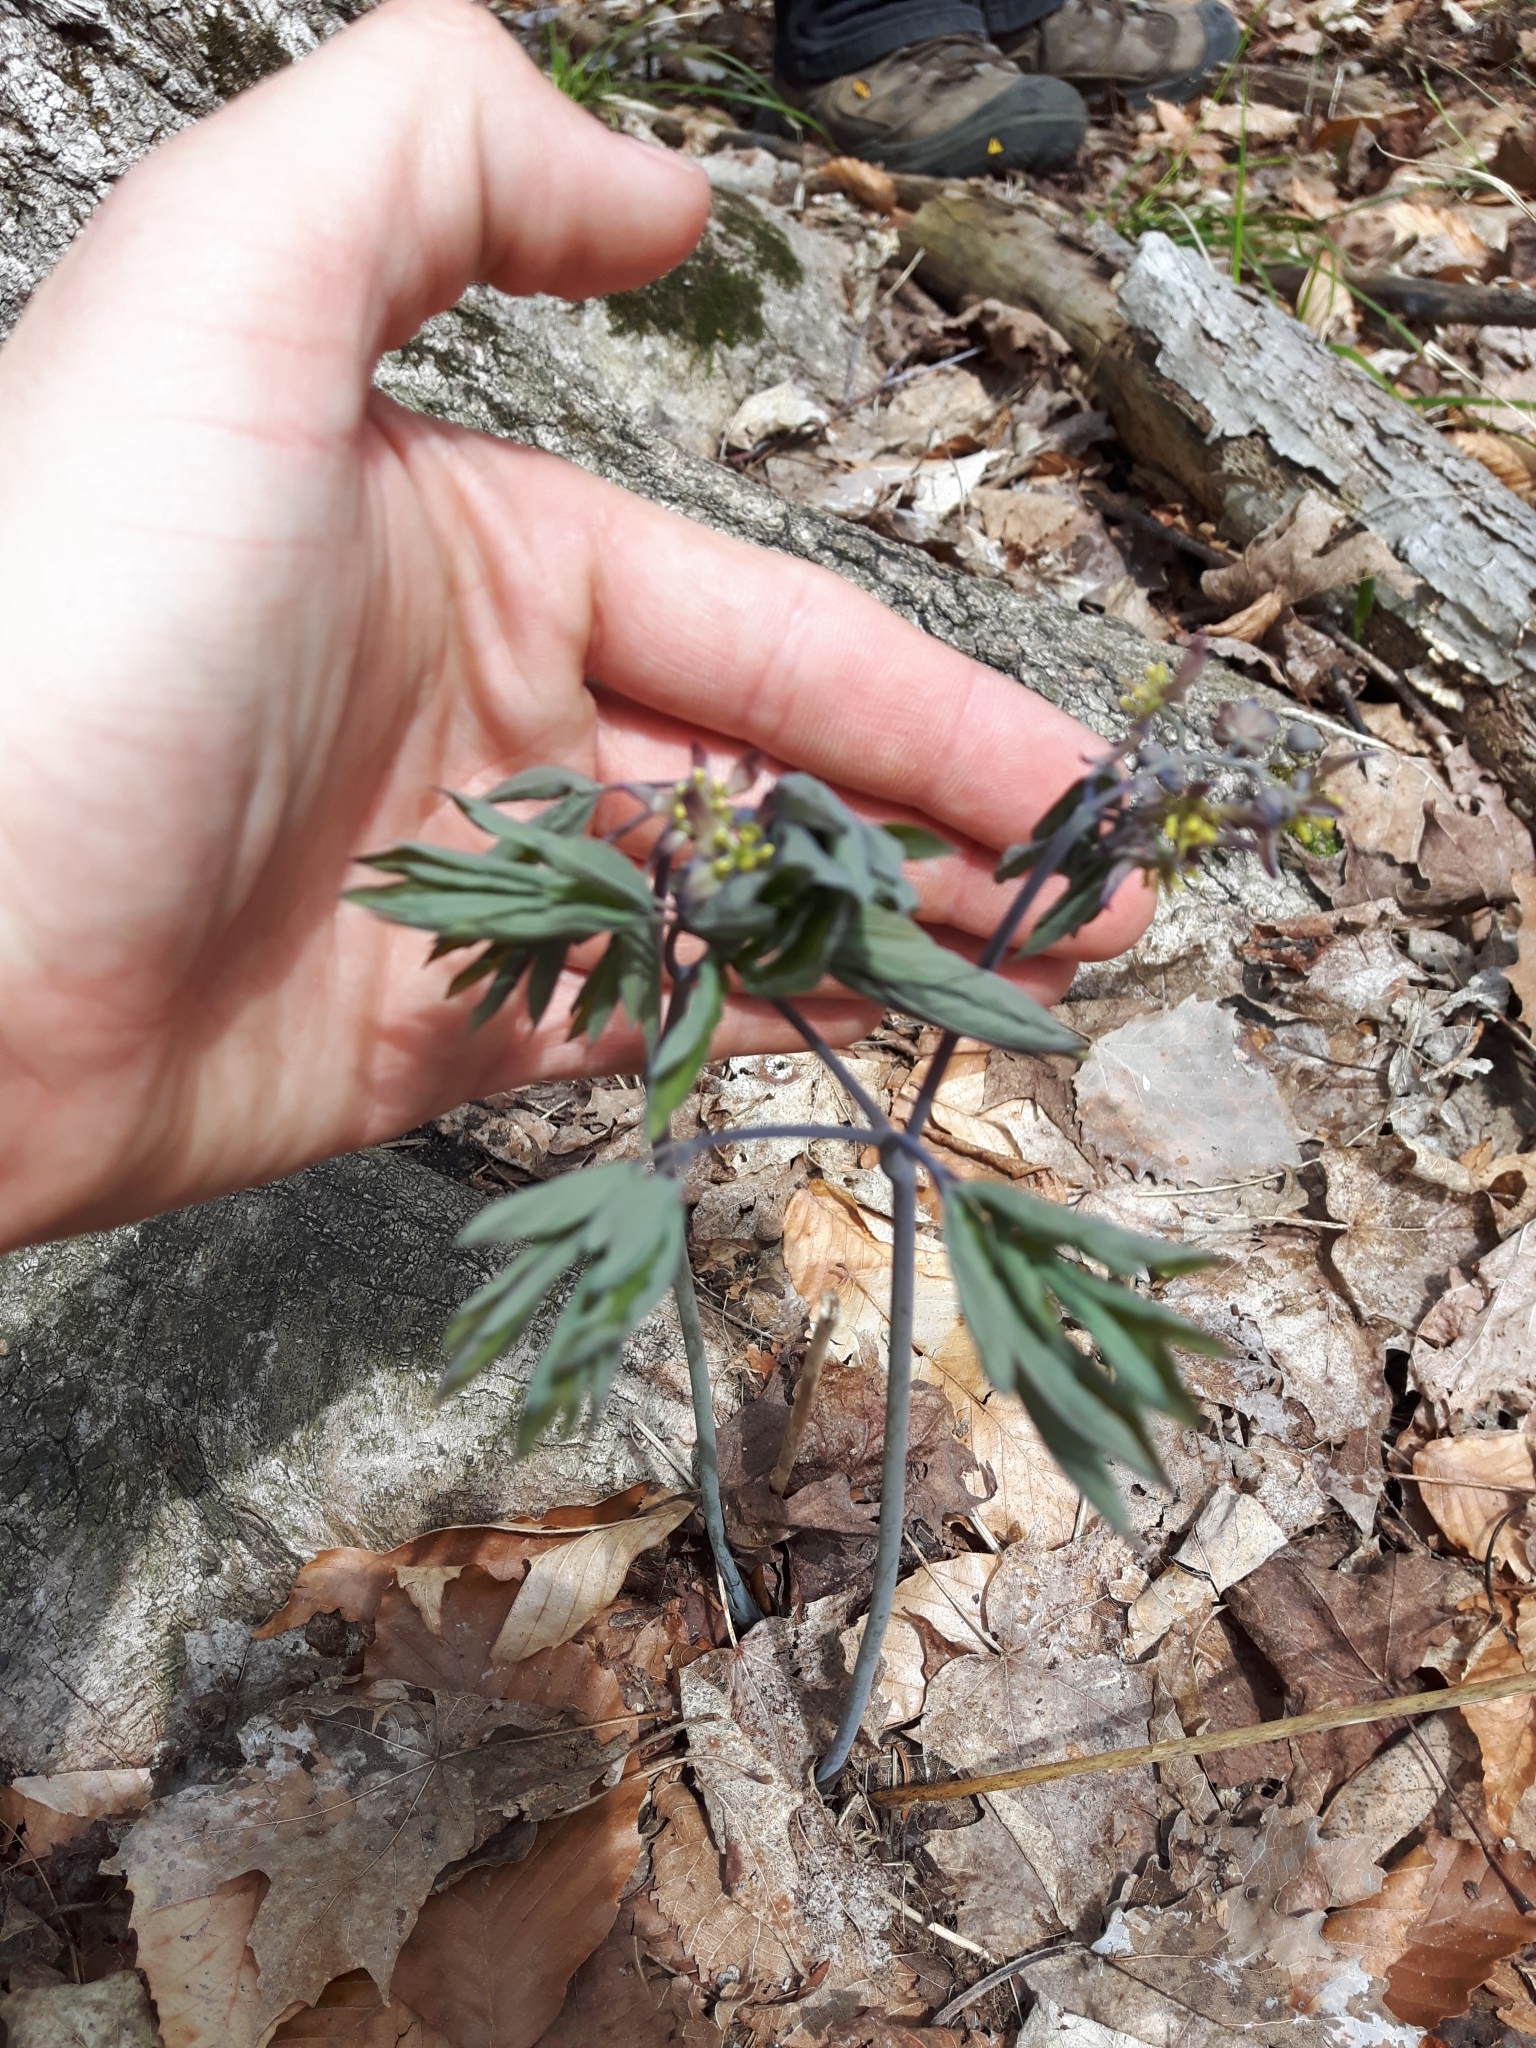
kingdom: Plantae
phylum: Tracheophyta
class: Magnoliopsida
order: Ranunculales
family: Berberidaceae
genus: Caulophyllum
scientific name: Caulophyllum giganteum
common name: Blue cohosh
